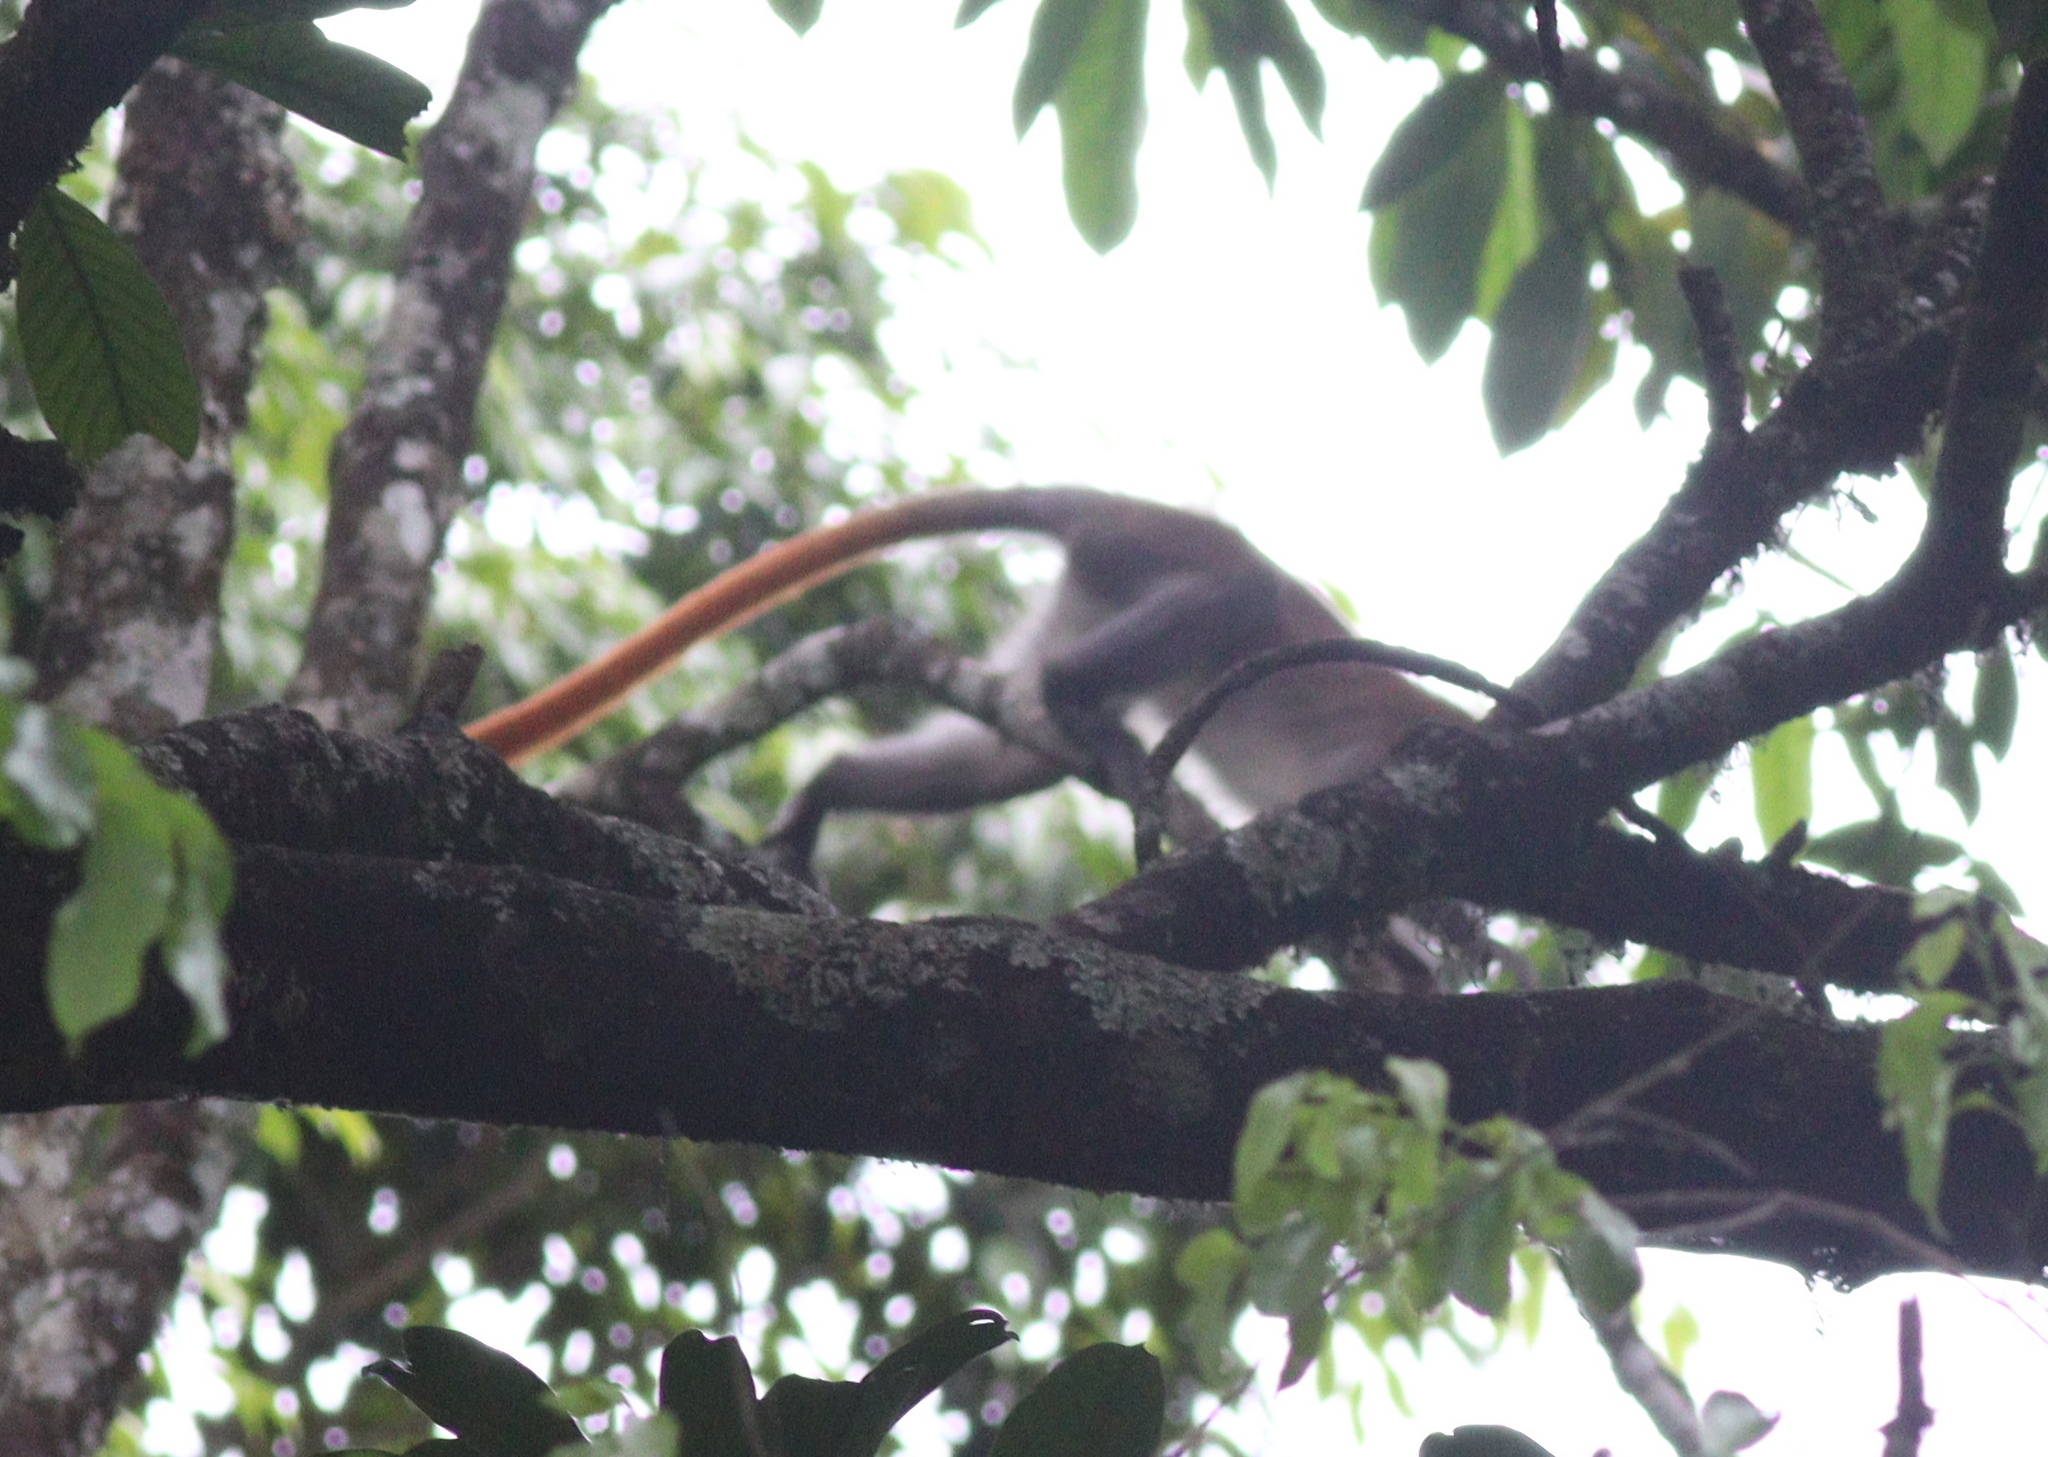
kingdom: Animalia
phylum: Chordata
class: Mammalia
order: Primates
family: Cercopithecidae
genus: Cercopithecus
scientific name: Cercopithecus ascanius
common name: Red-tailed monkey
